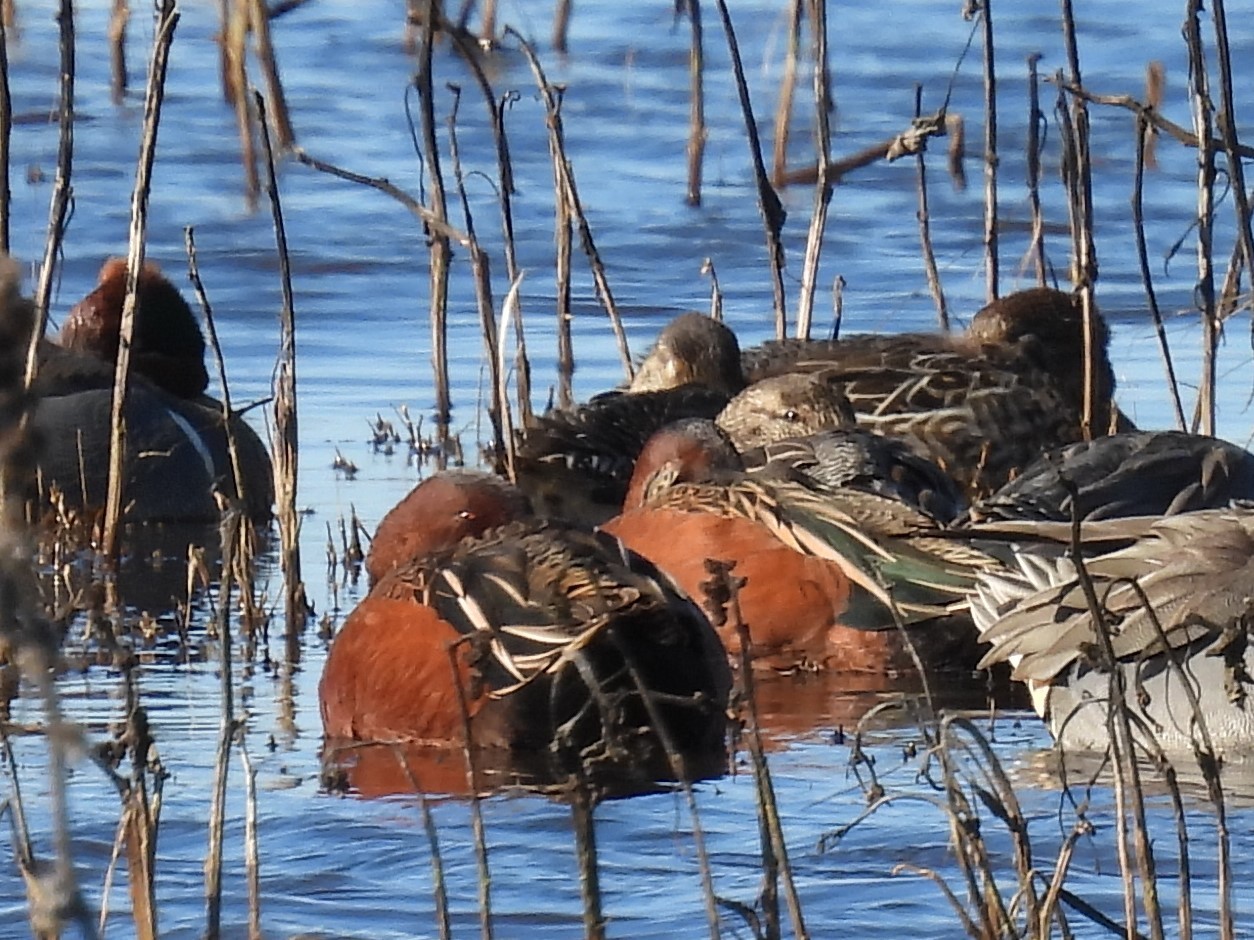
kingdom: Animalia
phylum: Chordata
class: Aves
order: Anseriformes
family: Anatidae
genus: Spatula
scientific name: Spatula cyanoptera
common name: Cinnamon teal
